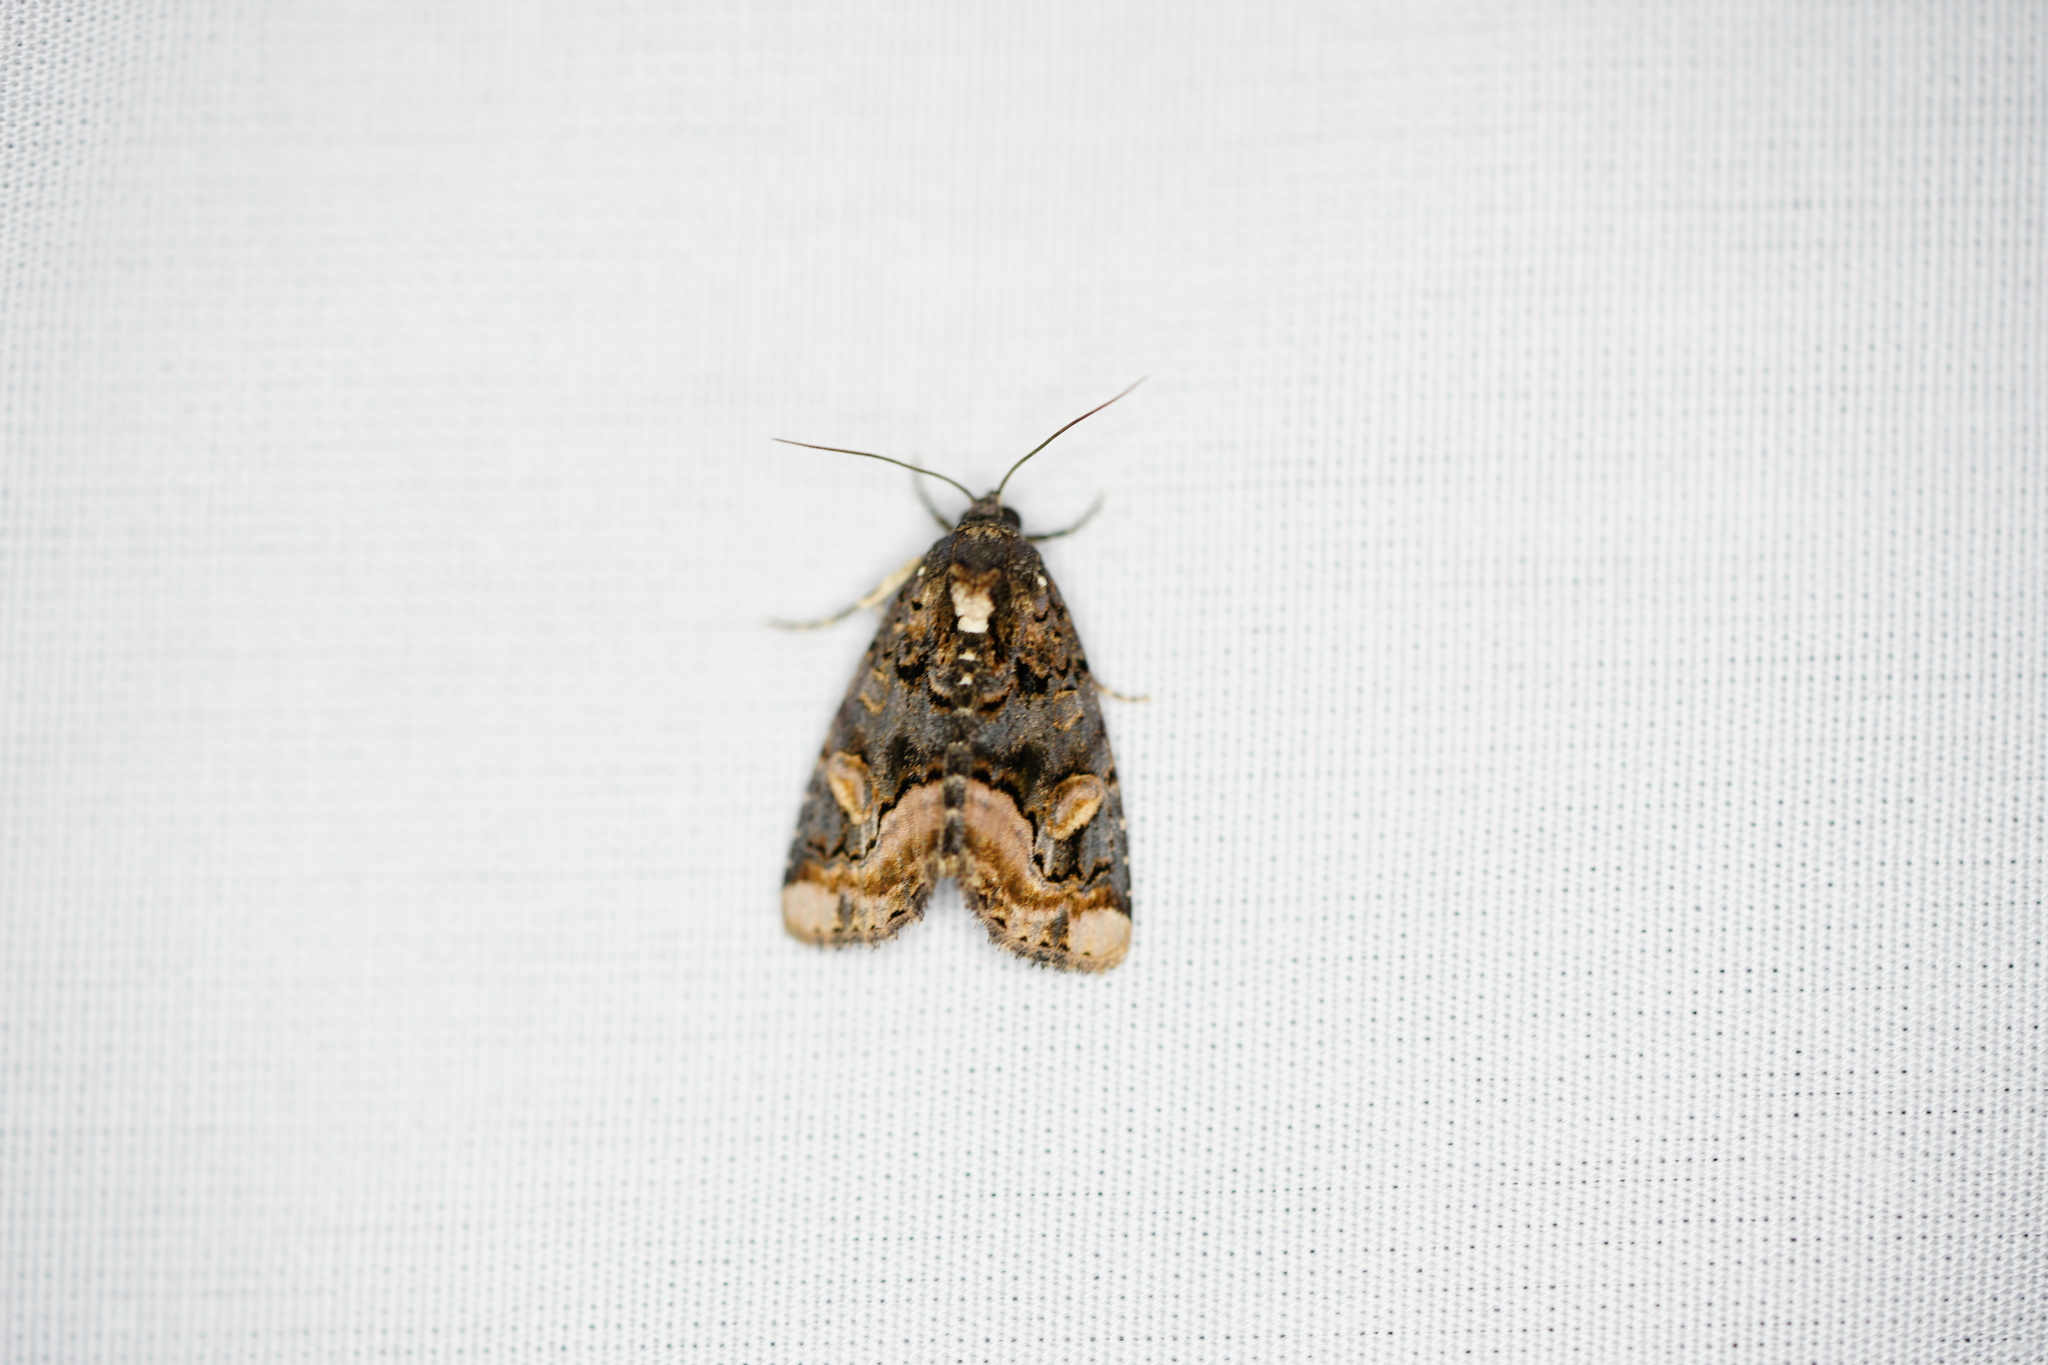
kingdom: Animalia
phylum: Arthropoda
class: Insecta
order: Lepidoptera
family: Noctuidae
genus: Homophoberia
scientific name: Homophoberia apicosa
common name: Black wedge-spot
